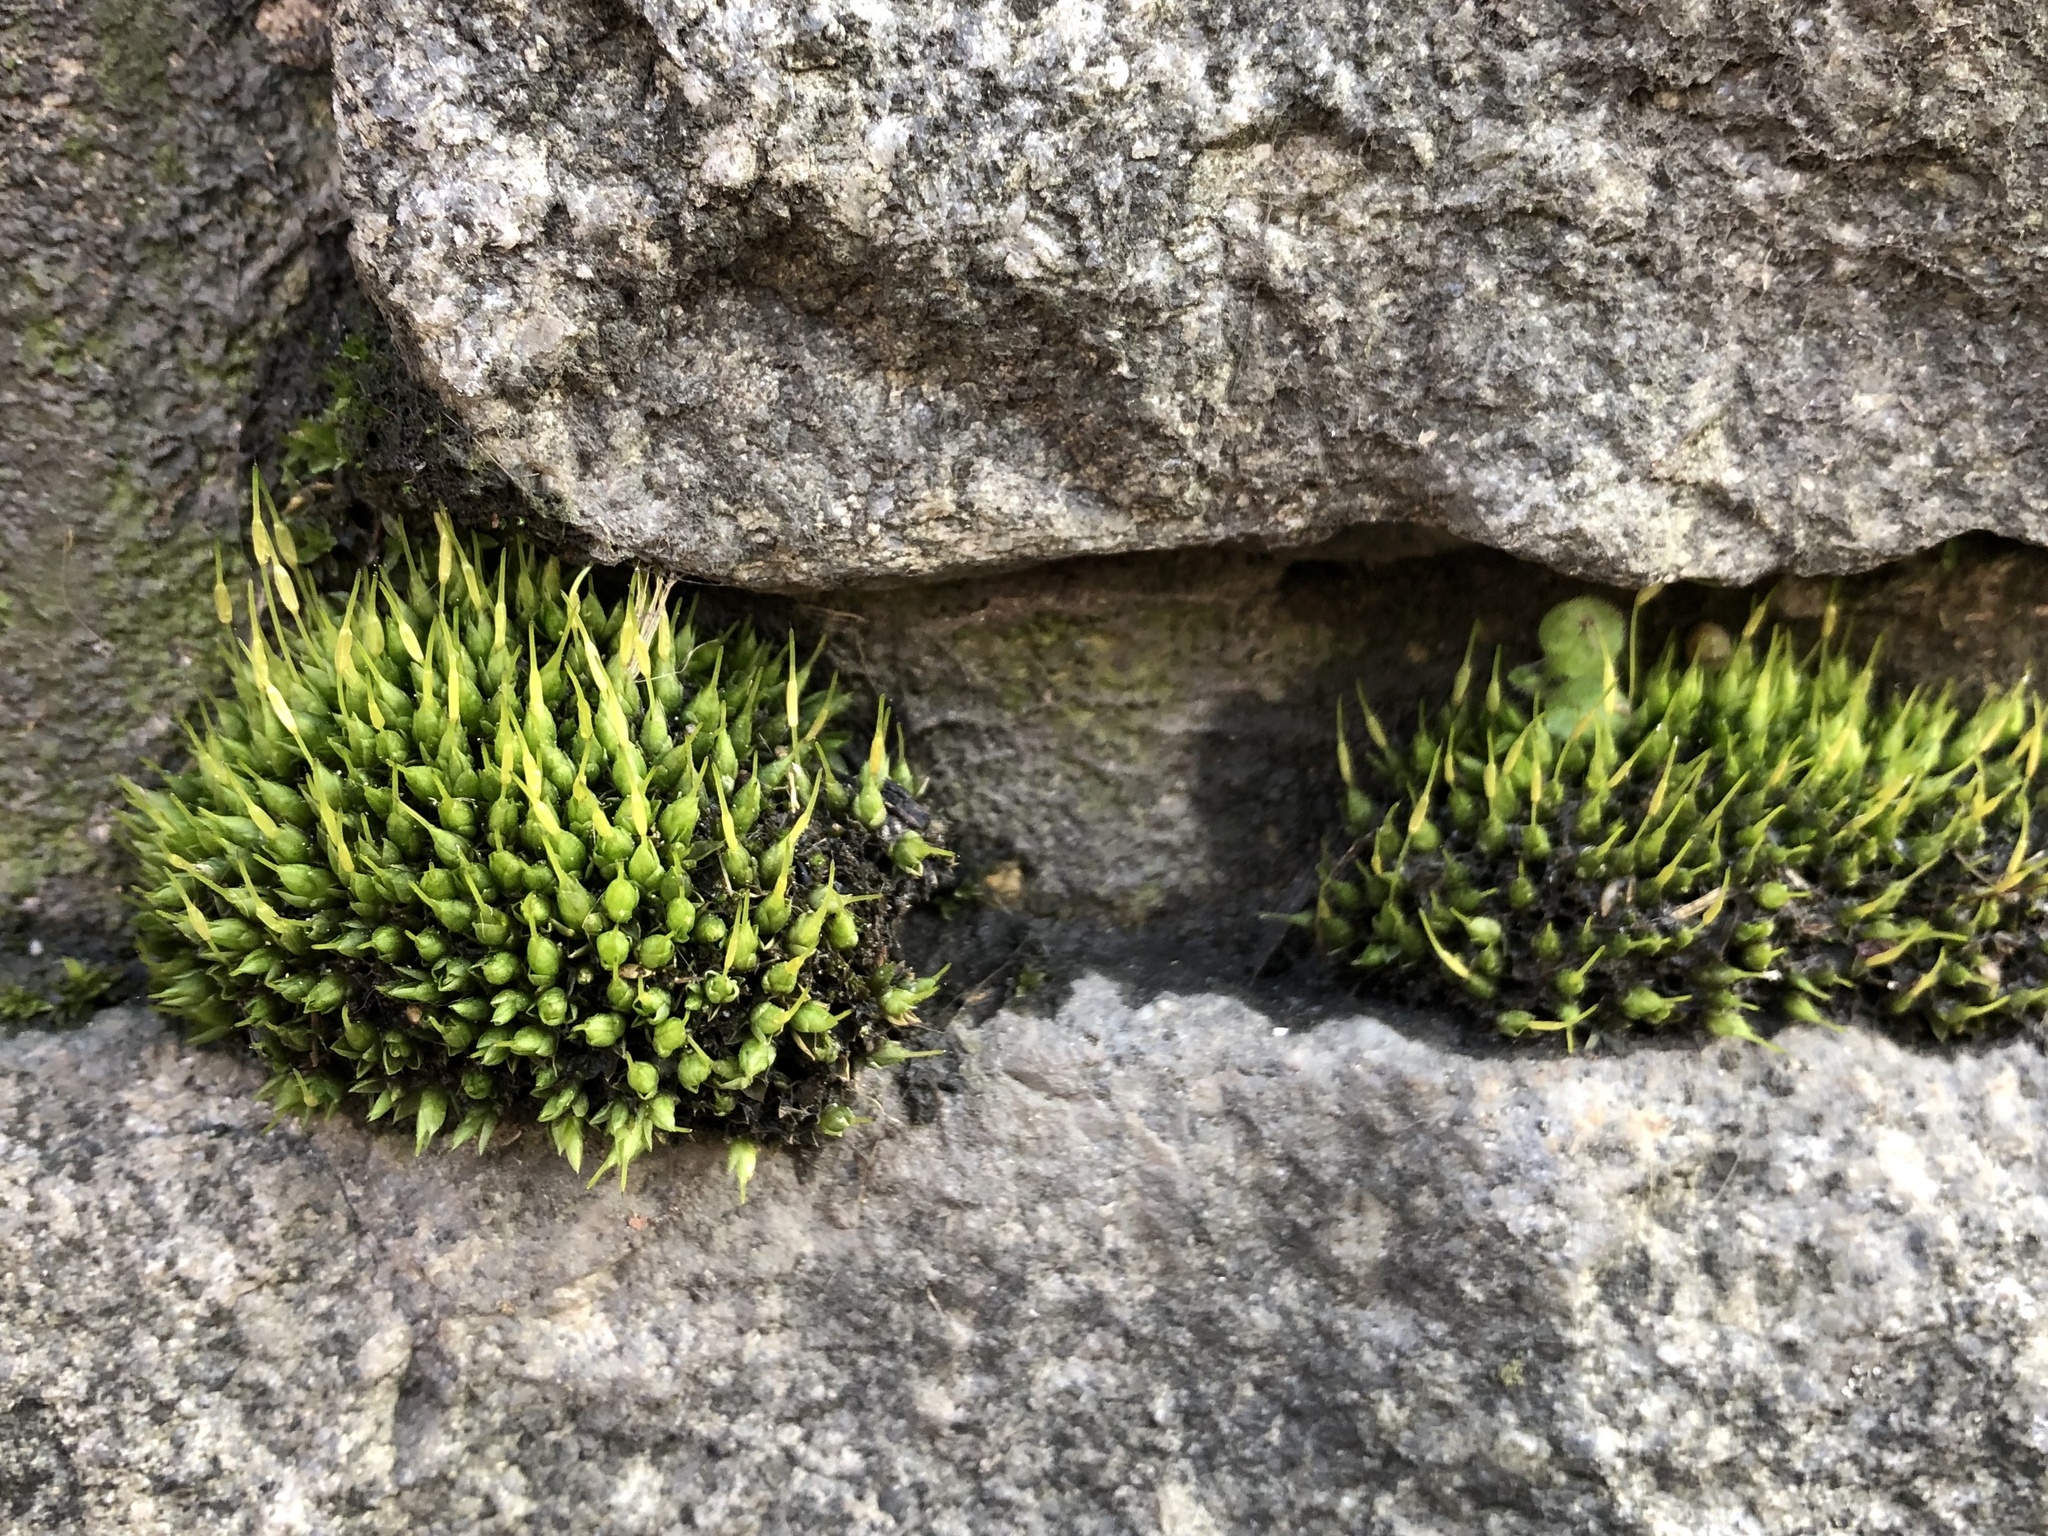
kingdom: Plantae
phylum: Bryophyta
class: Bryopsida
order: Funariales
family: Funariaceae
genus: Funaria
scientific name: Funaria hygrometrica
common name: Common cord moss
